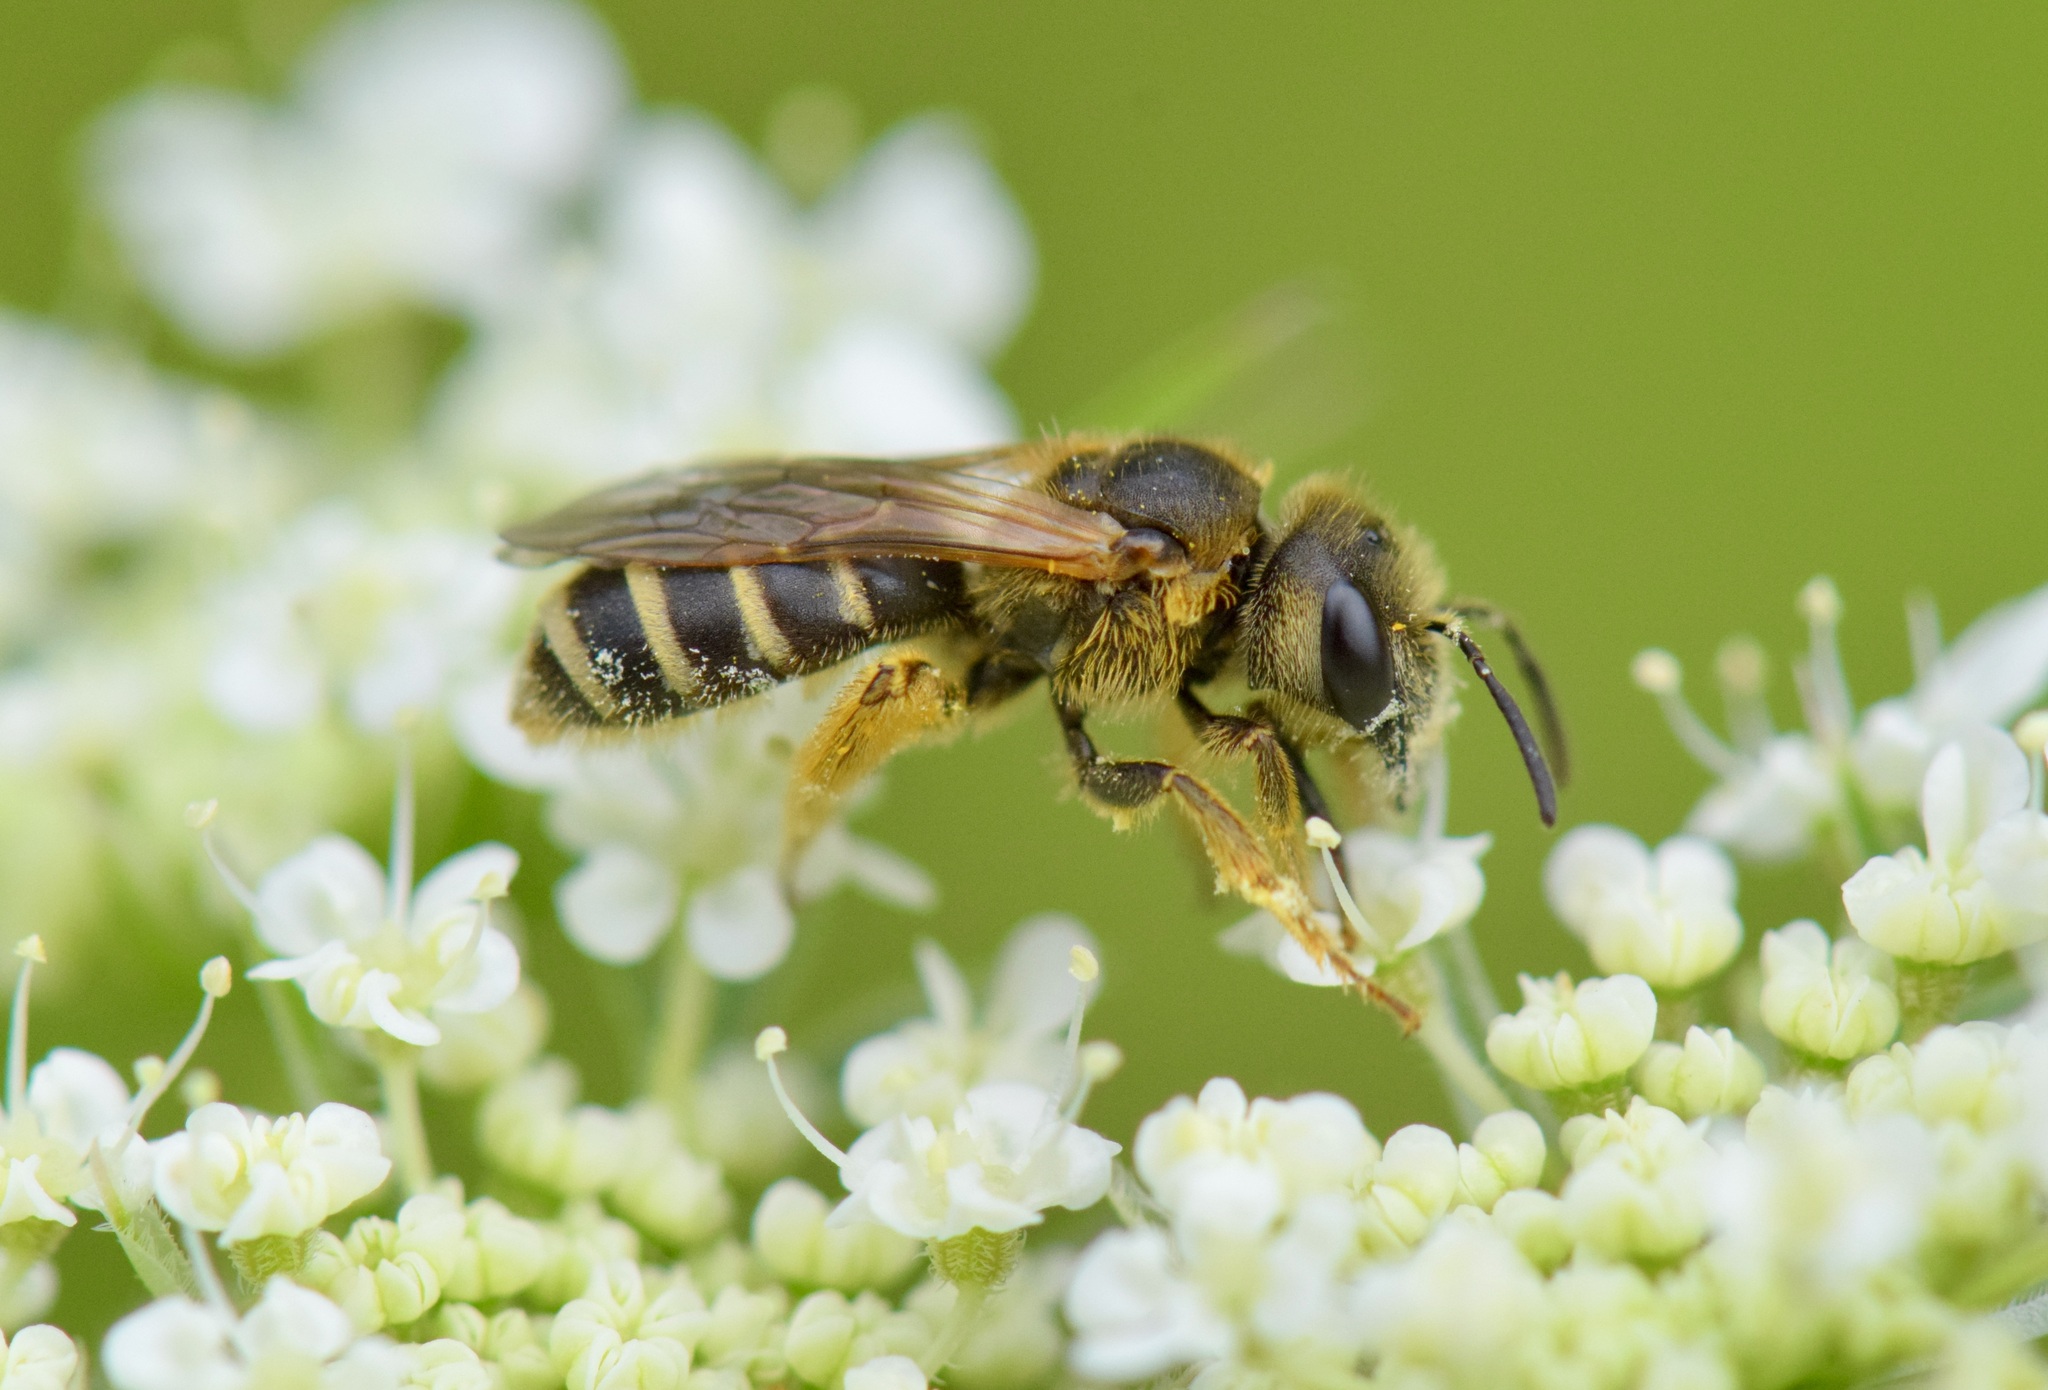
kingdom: Animalia
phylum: Arthropoda
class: Insecta
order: Hymenoptera
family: Halictidae
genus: Halictus
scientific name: Halictus ligatus
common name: Ligated furrow bee
